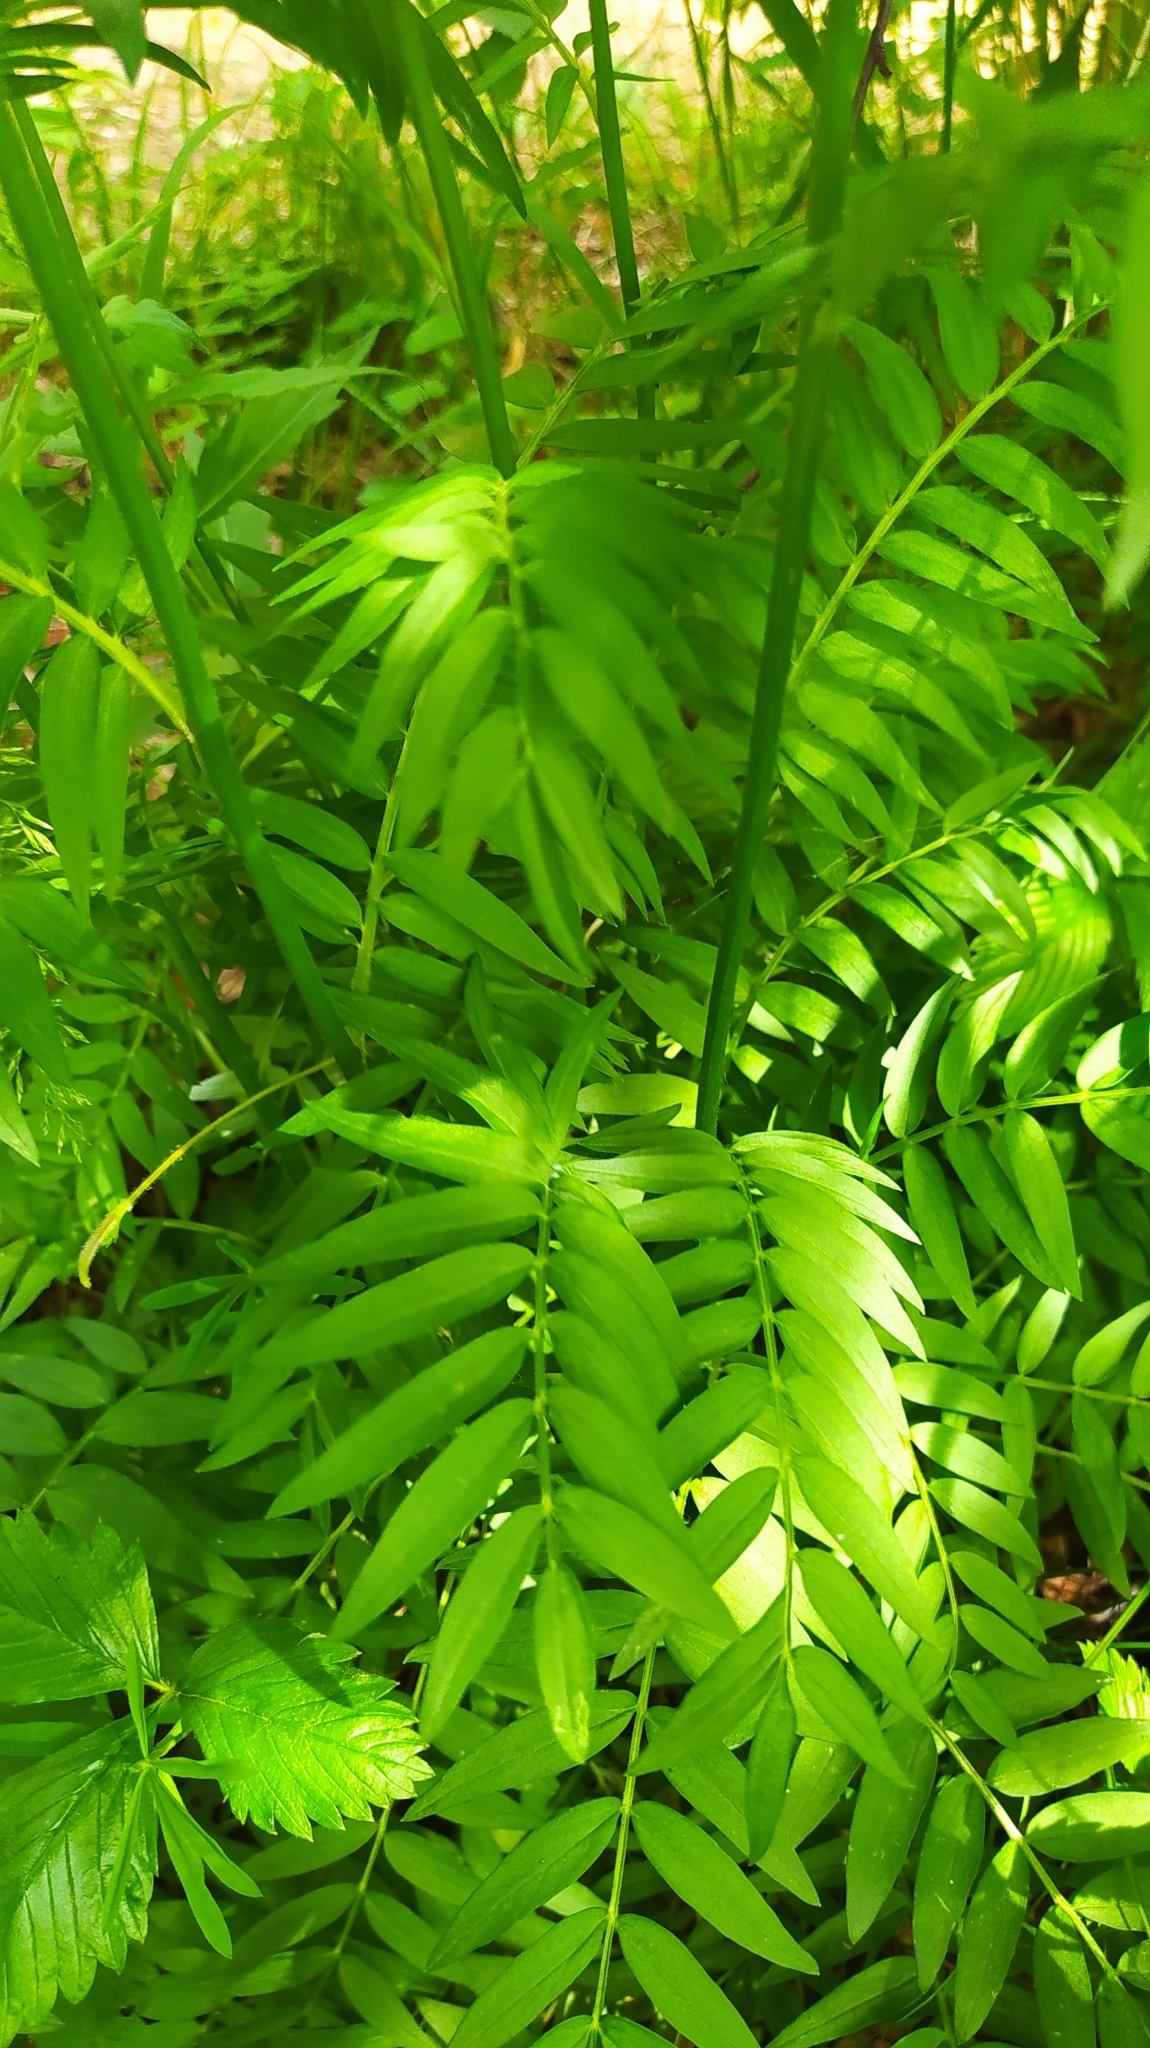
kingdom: Plantae
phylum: Tracheophyta
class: Magnoliopsida
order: Ericales
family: Polemoniaceae
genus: Polemonium
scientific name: Polemonium caeruleum
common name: Jacob's-ladder
